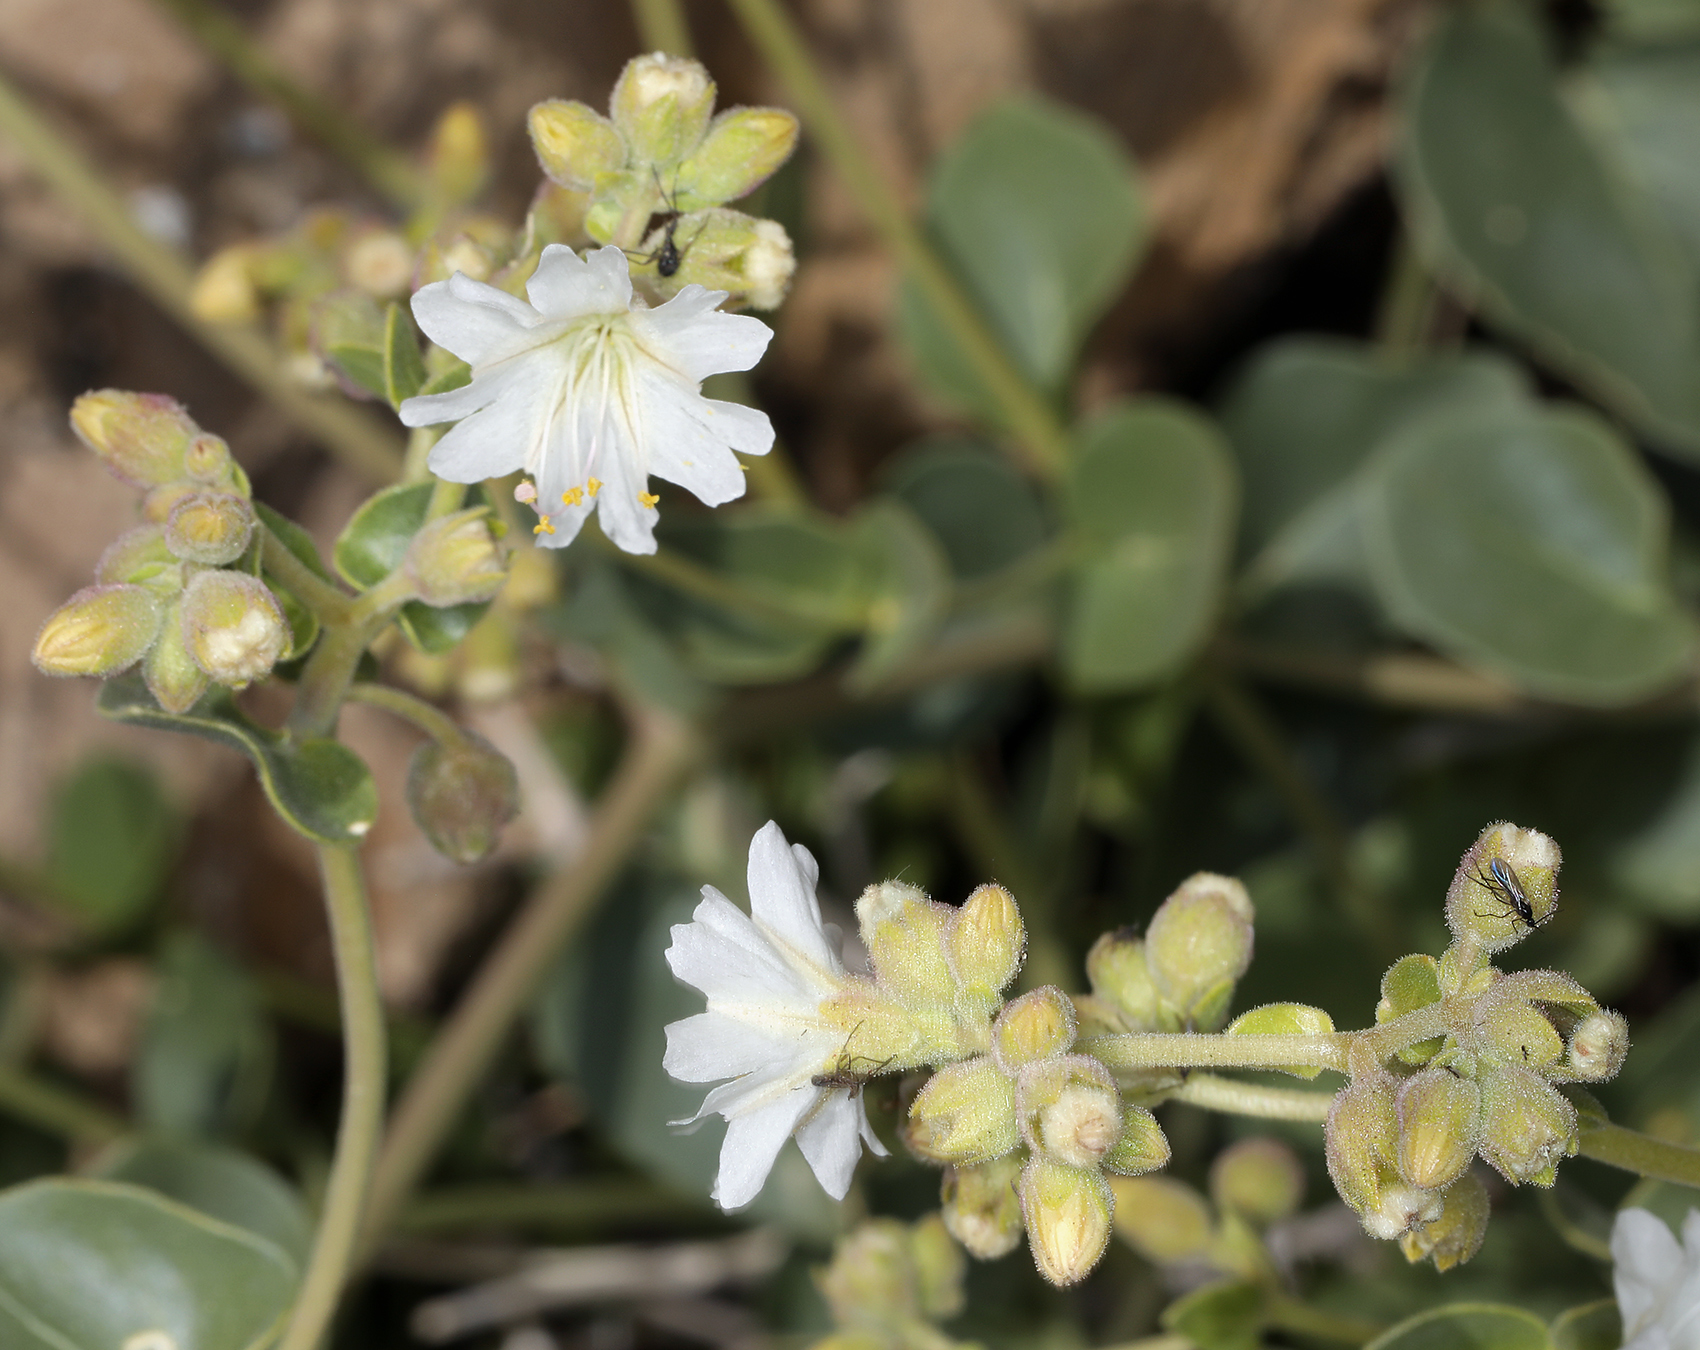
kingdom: Plantae
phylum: Tracheophyta
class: Magnoliopsida
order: Caryophyllales
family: Nyctaginaceae
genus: Mirabilis
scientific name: Mirabilis laevis
